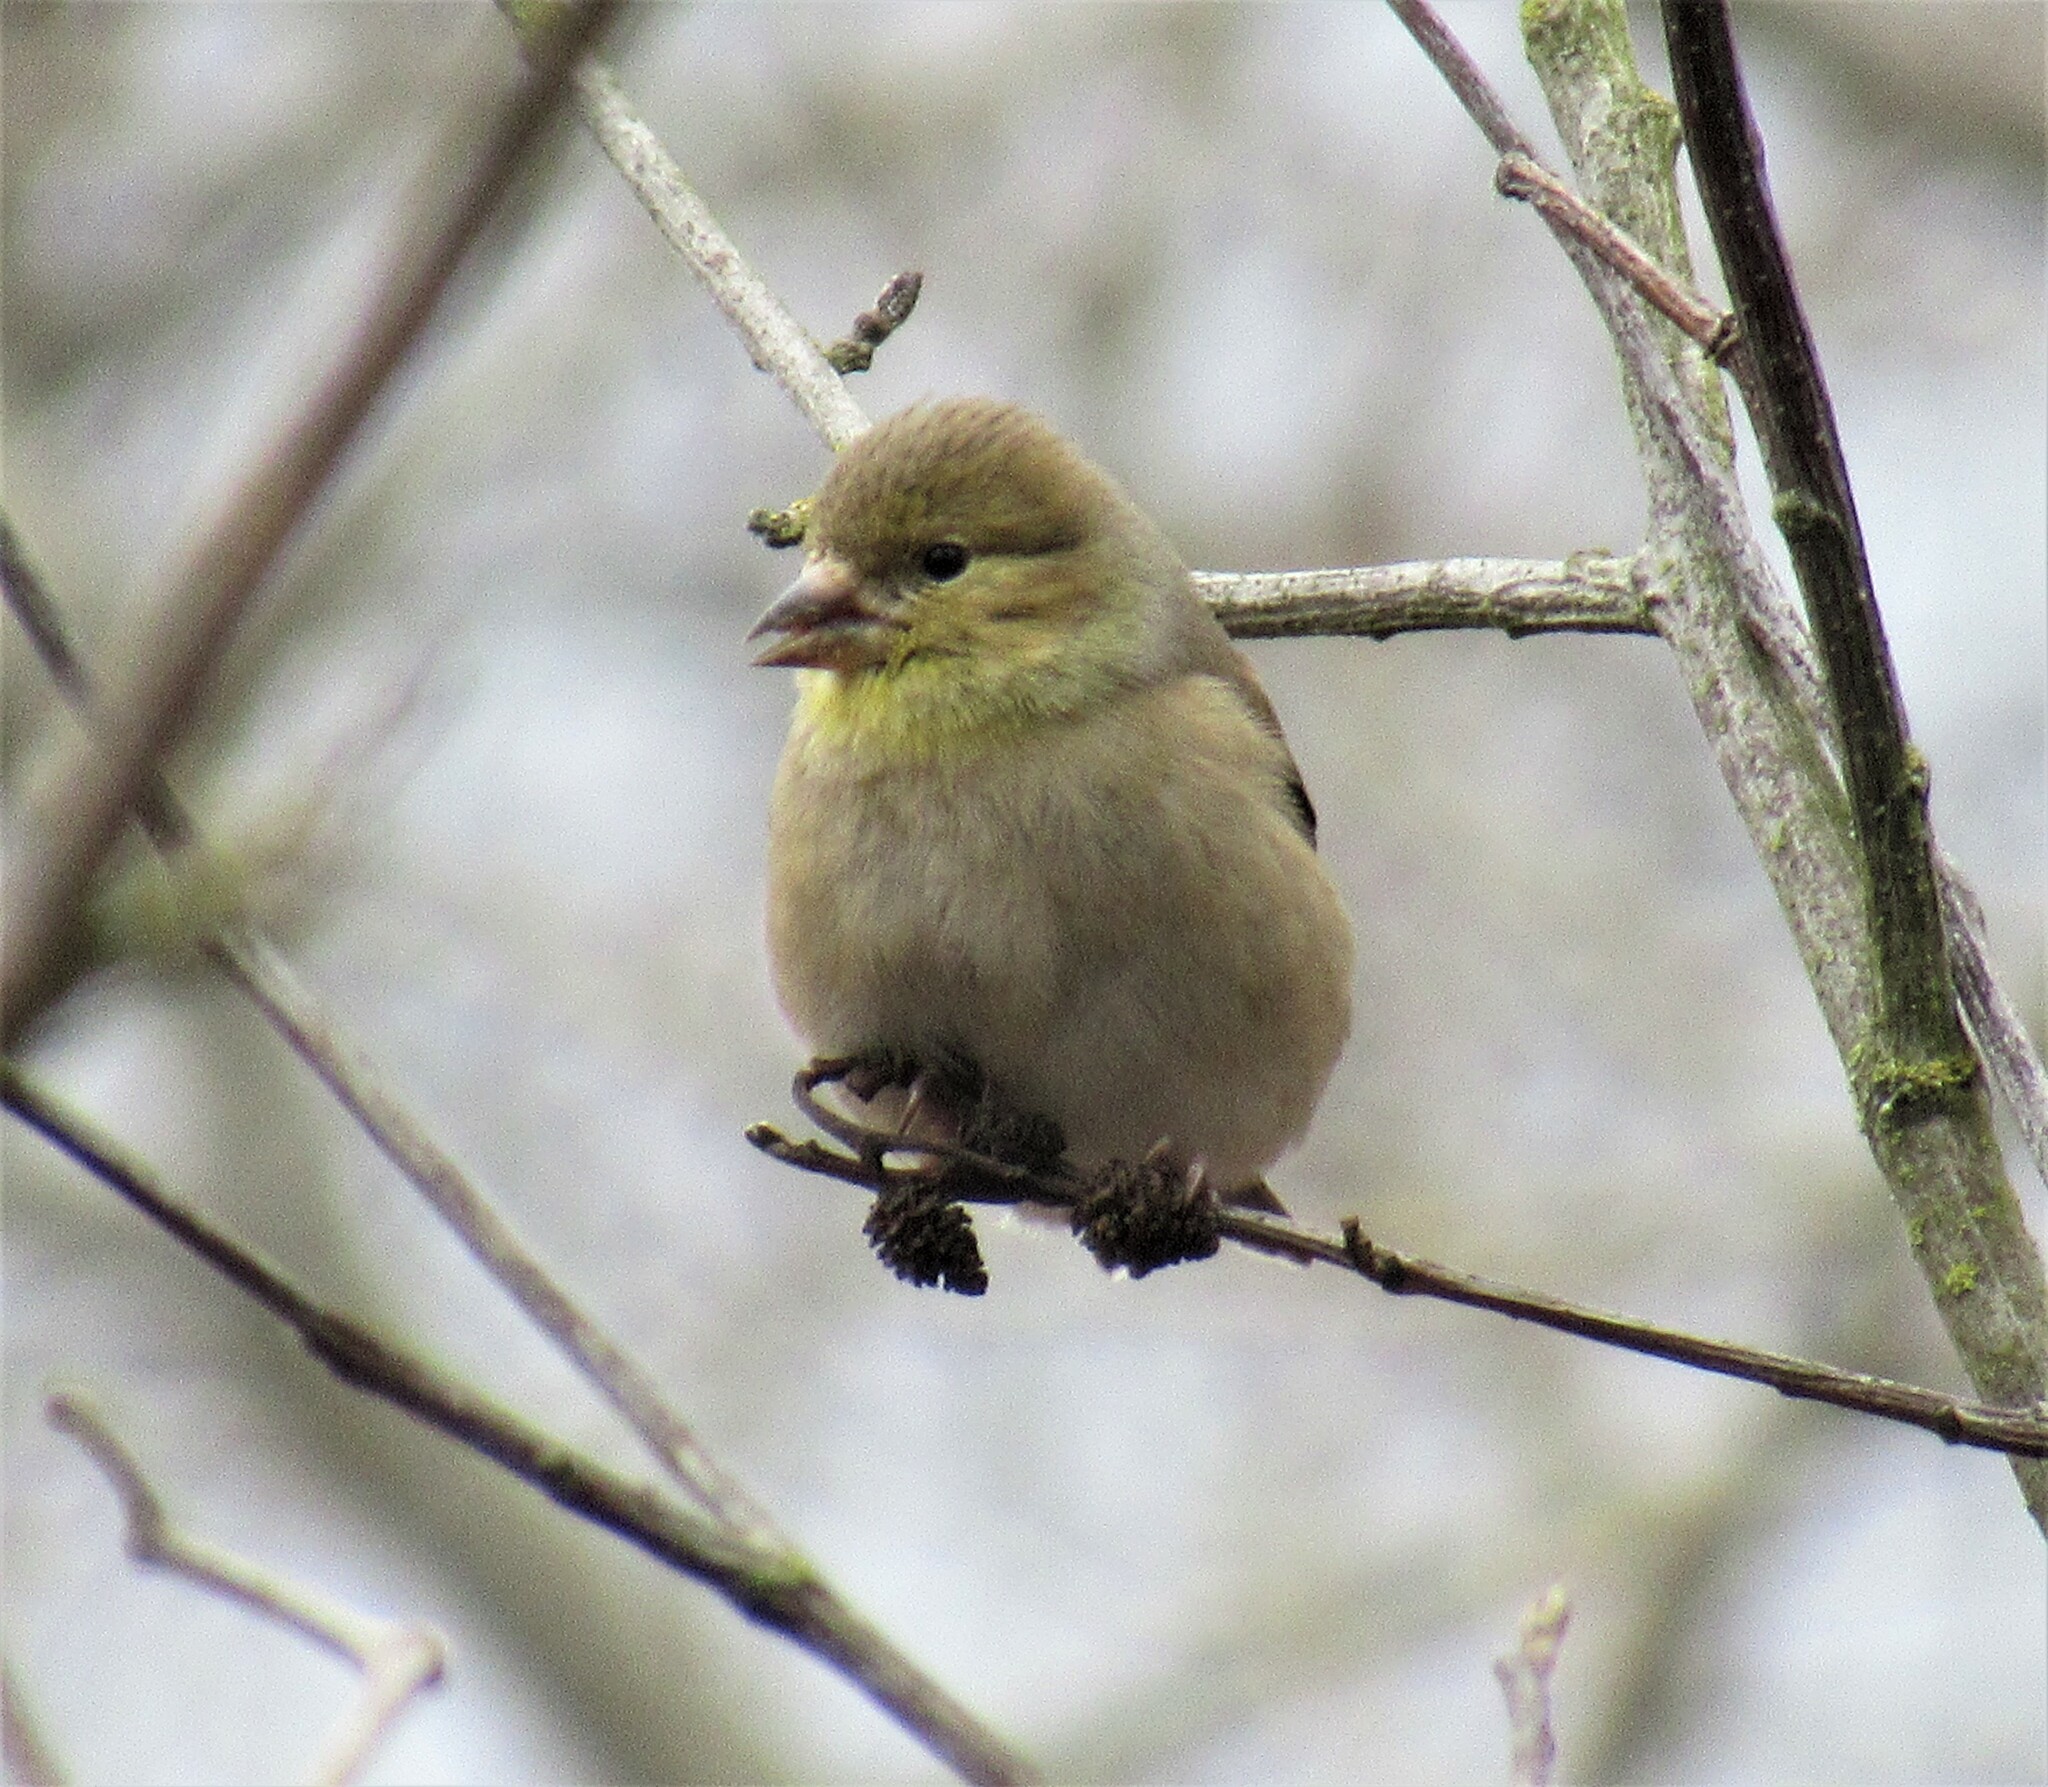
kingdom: Animalia
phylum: Chordata
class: Aves
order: Passeriformes
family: Fringillidae
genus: Spinus
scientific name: Spinus tristis
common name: American goldfinch
